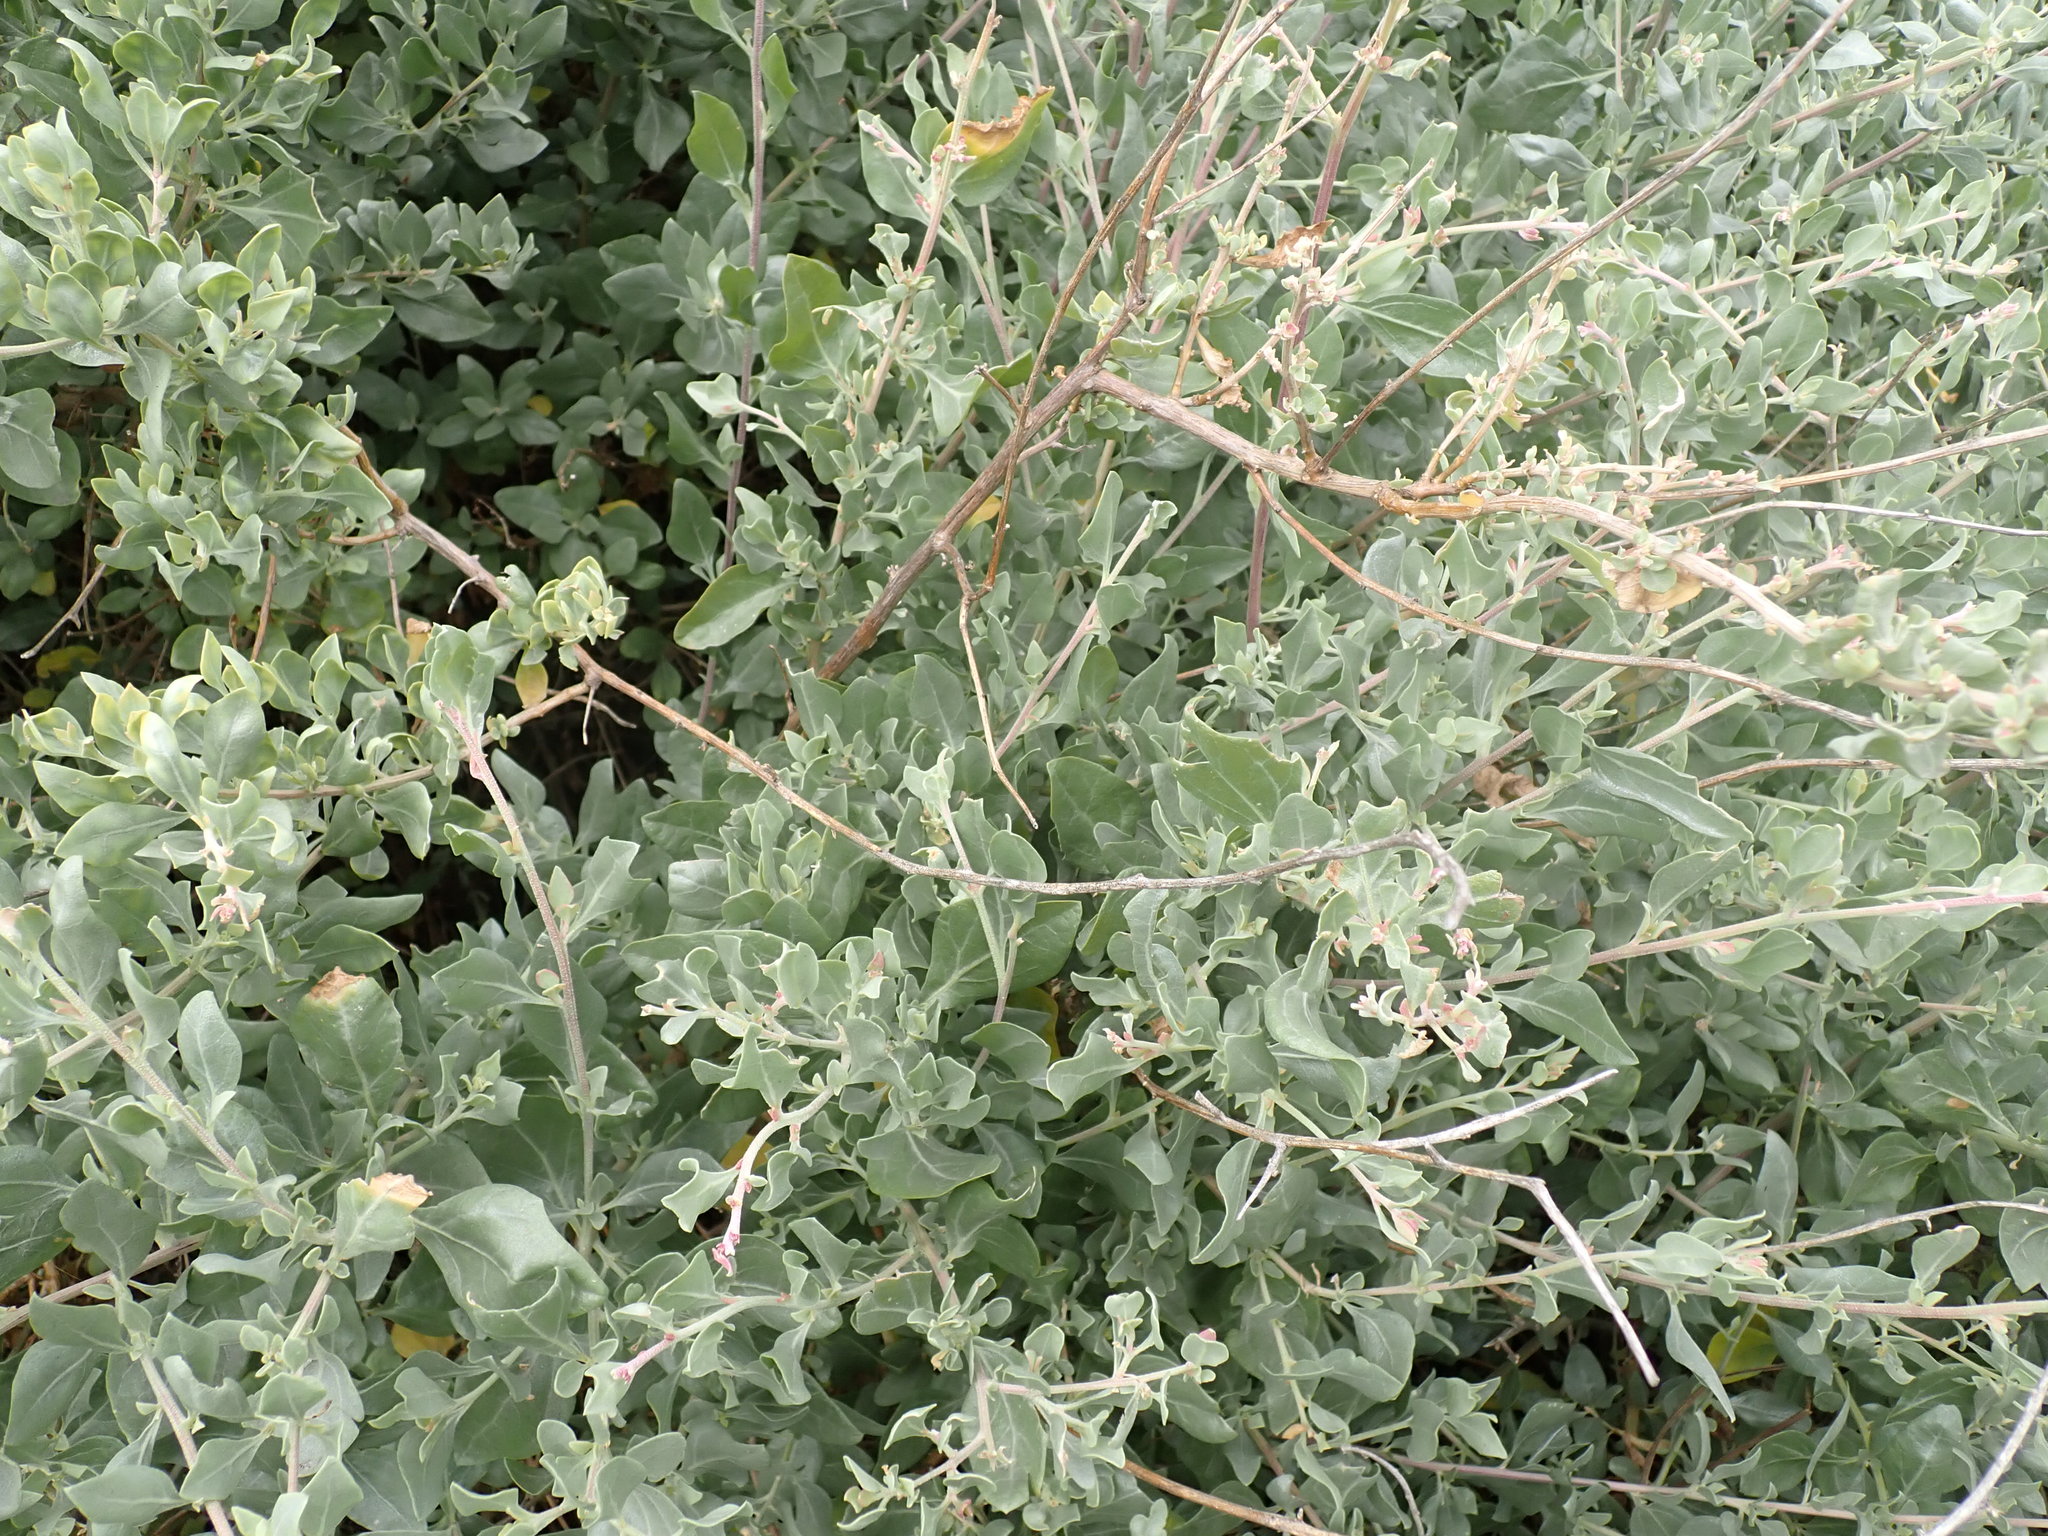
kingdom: Plantae
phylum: Tracheophyta
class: Magnoliopsida
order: Caryophyllales
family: Amaranthaceae
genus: Atriplex
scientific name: Atriplex halimus
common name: Shrubby orache
